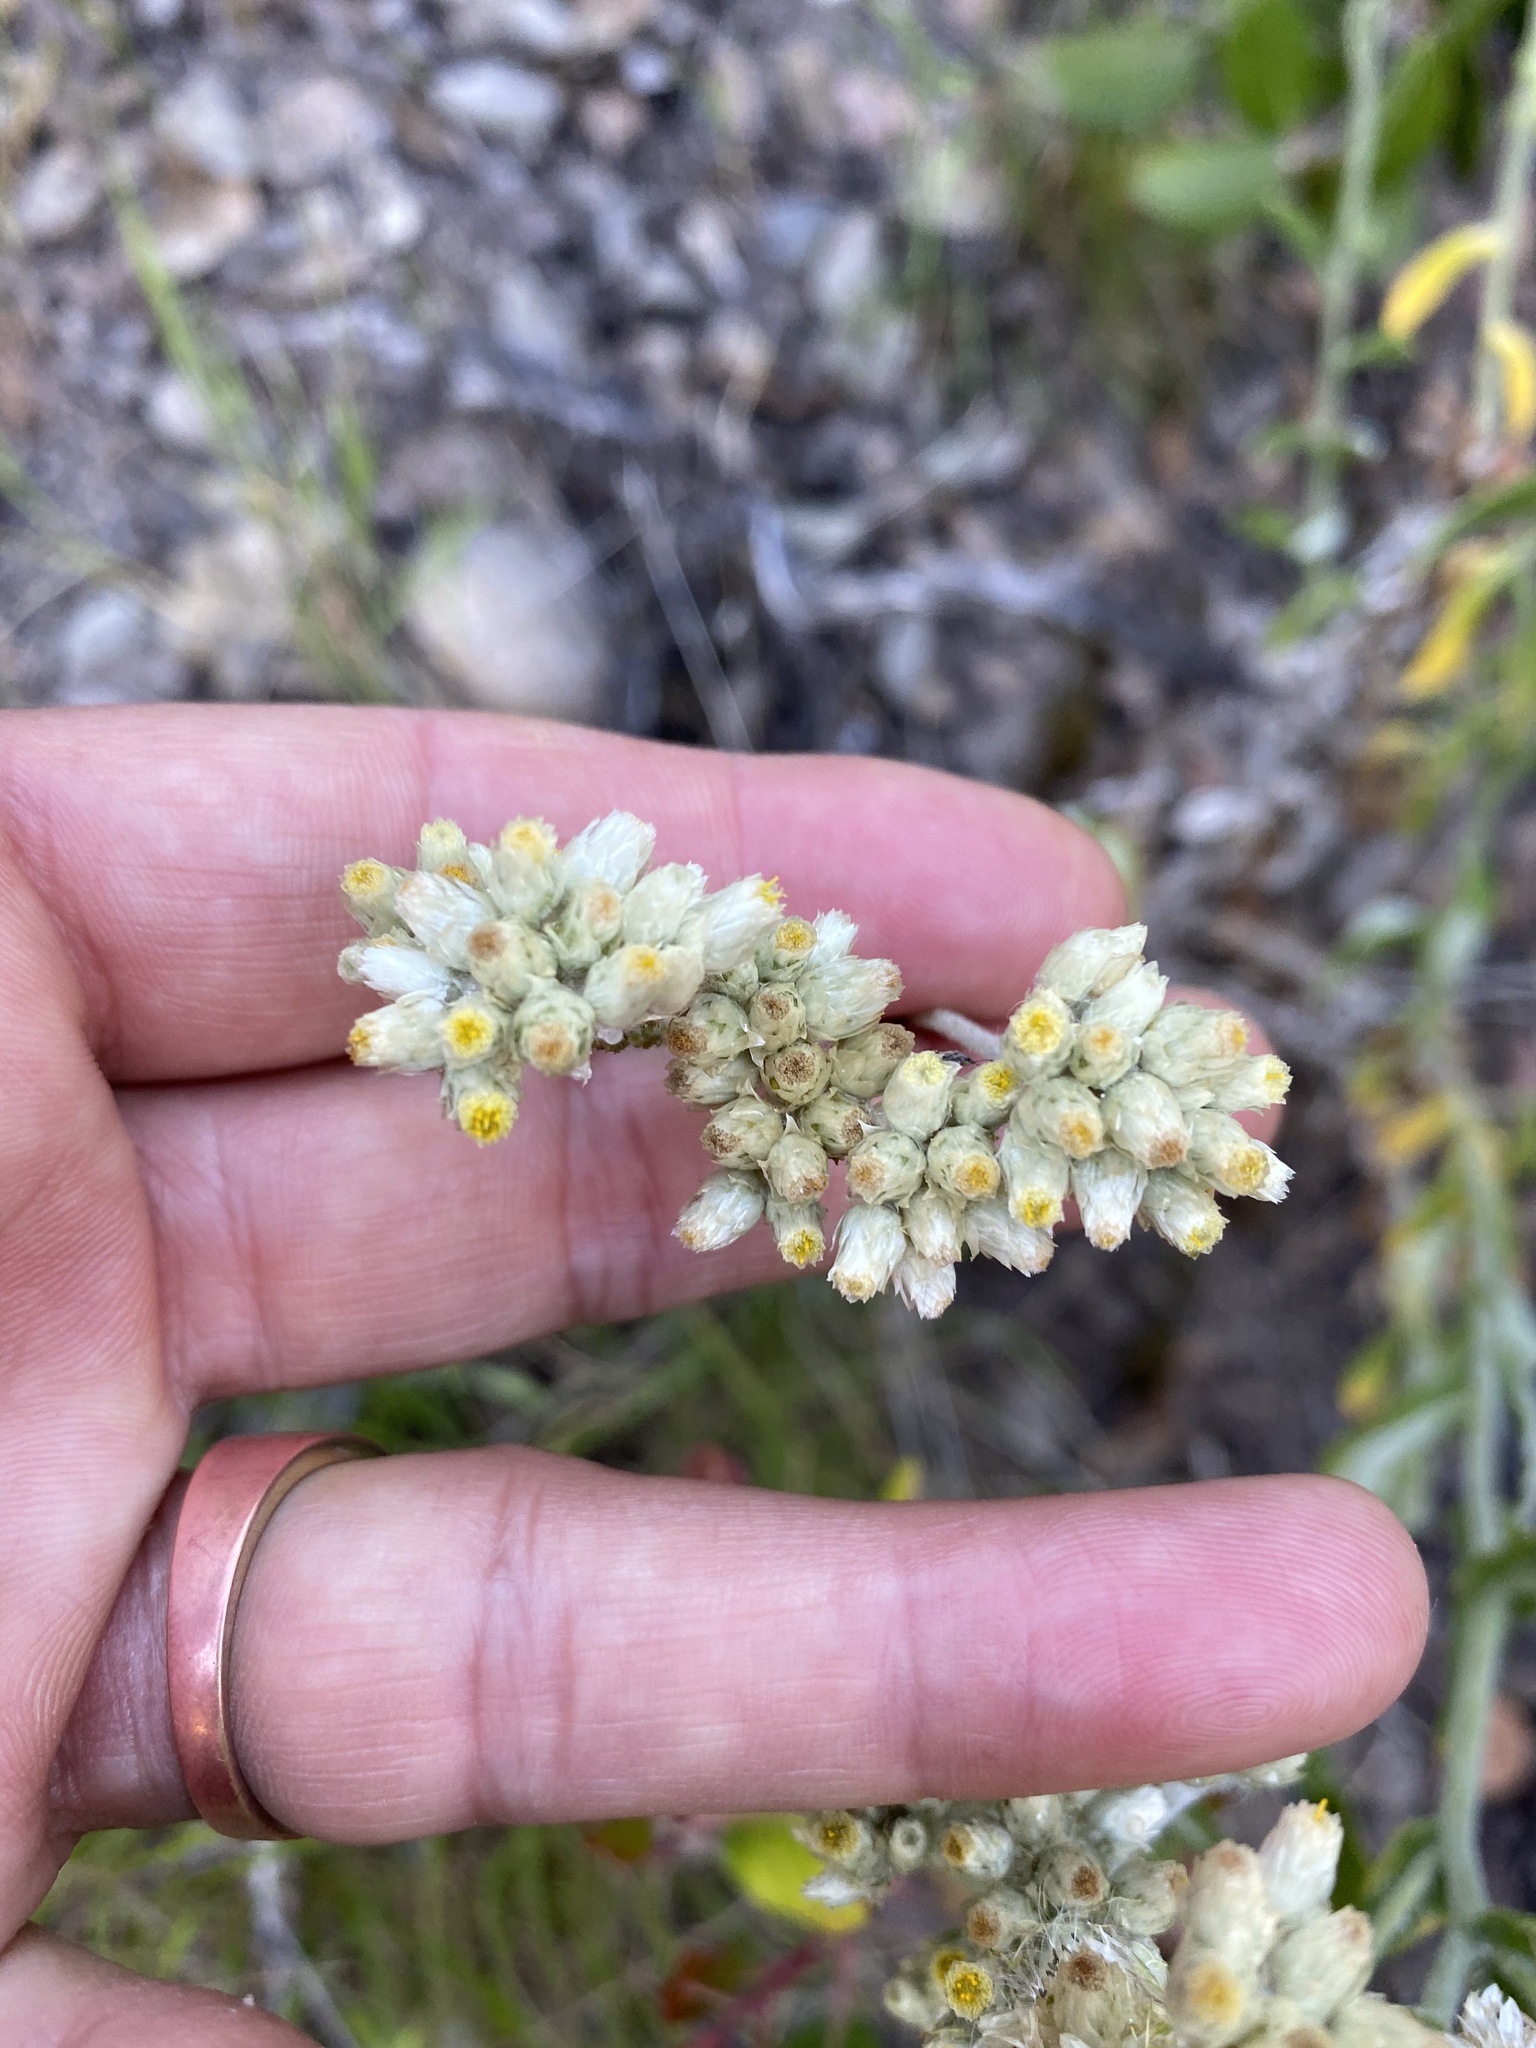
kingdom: Plantae
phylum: Tracheophyta
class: Magnoliopsida
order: Asterales
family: Asteraceae
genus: Pseudognaphalium
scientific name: Pseudognaphalium biolettii
